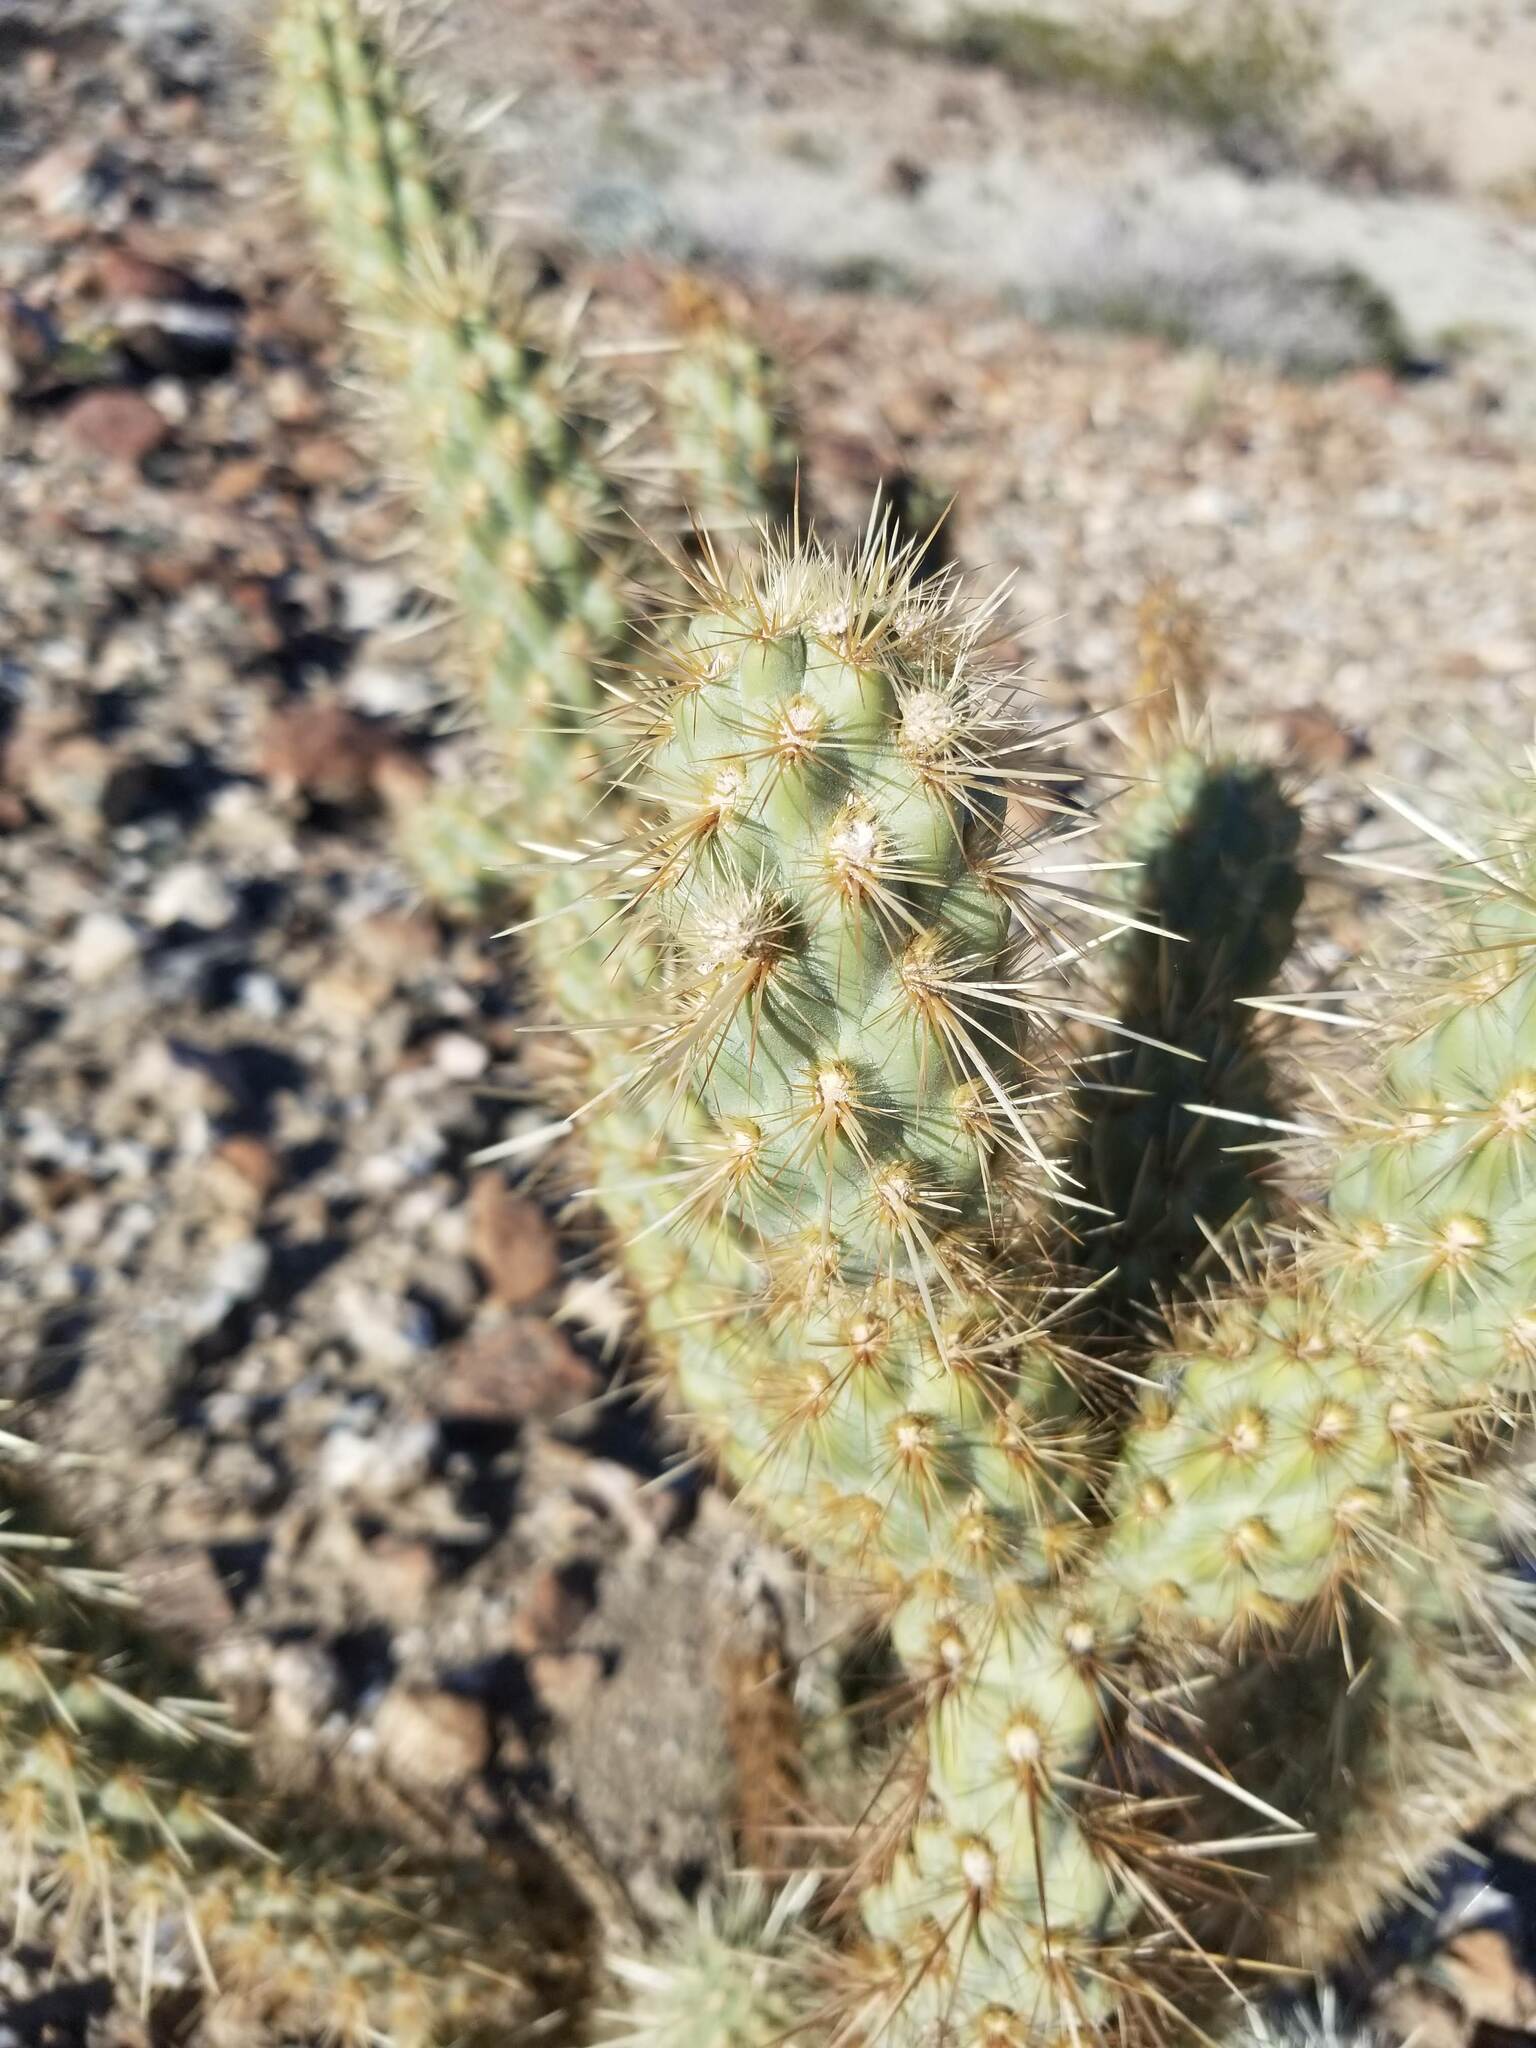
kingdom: Plantae
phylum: Tracheophyta
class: Magnoliopsida
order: Caryophyllales
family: Cactaceae
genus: Cylindropuntia
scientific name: Cylindropuntia ganderi
